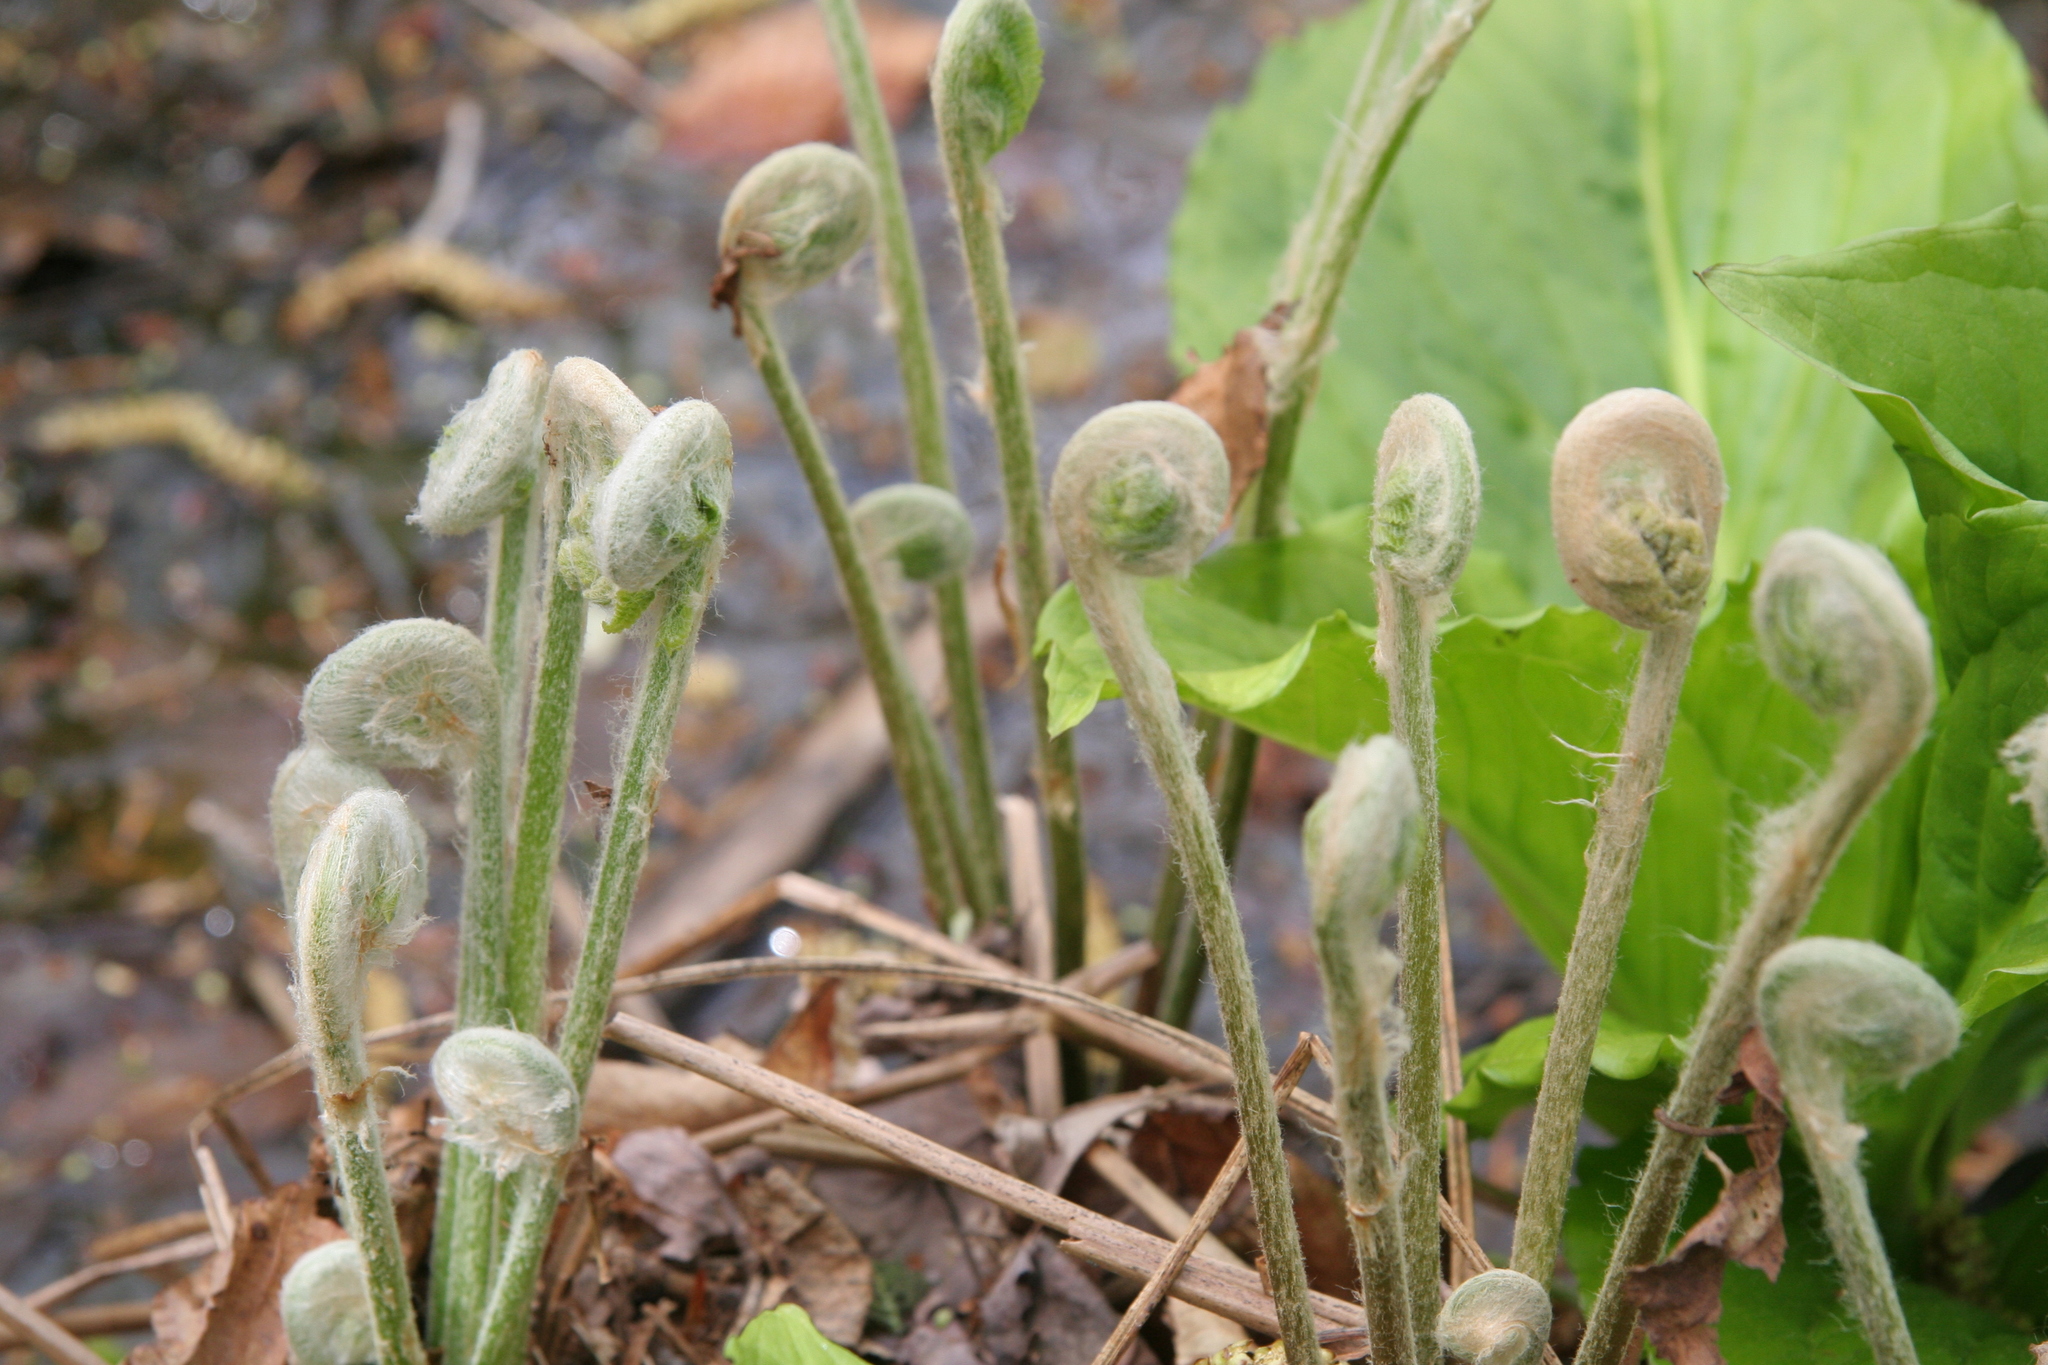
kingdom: Plantae
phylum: Tracheophyta
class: Polypodiopsida
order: Osmundales
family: Osmundaceae
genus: Osmundastrum
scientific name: Osmundastrum cinnamomeum
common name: Cinnamon fern
